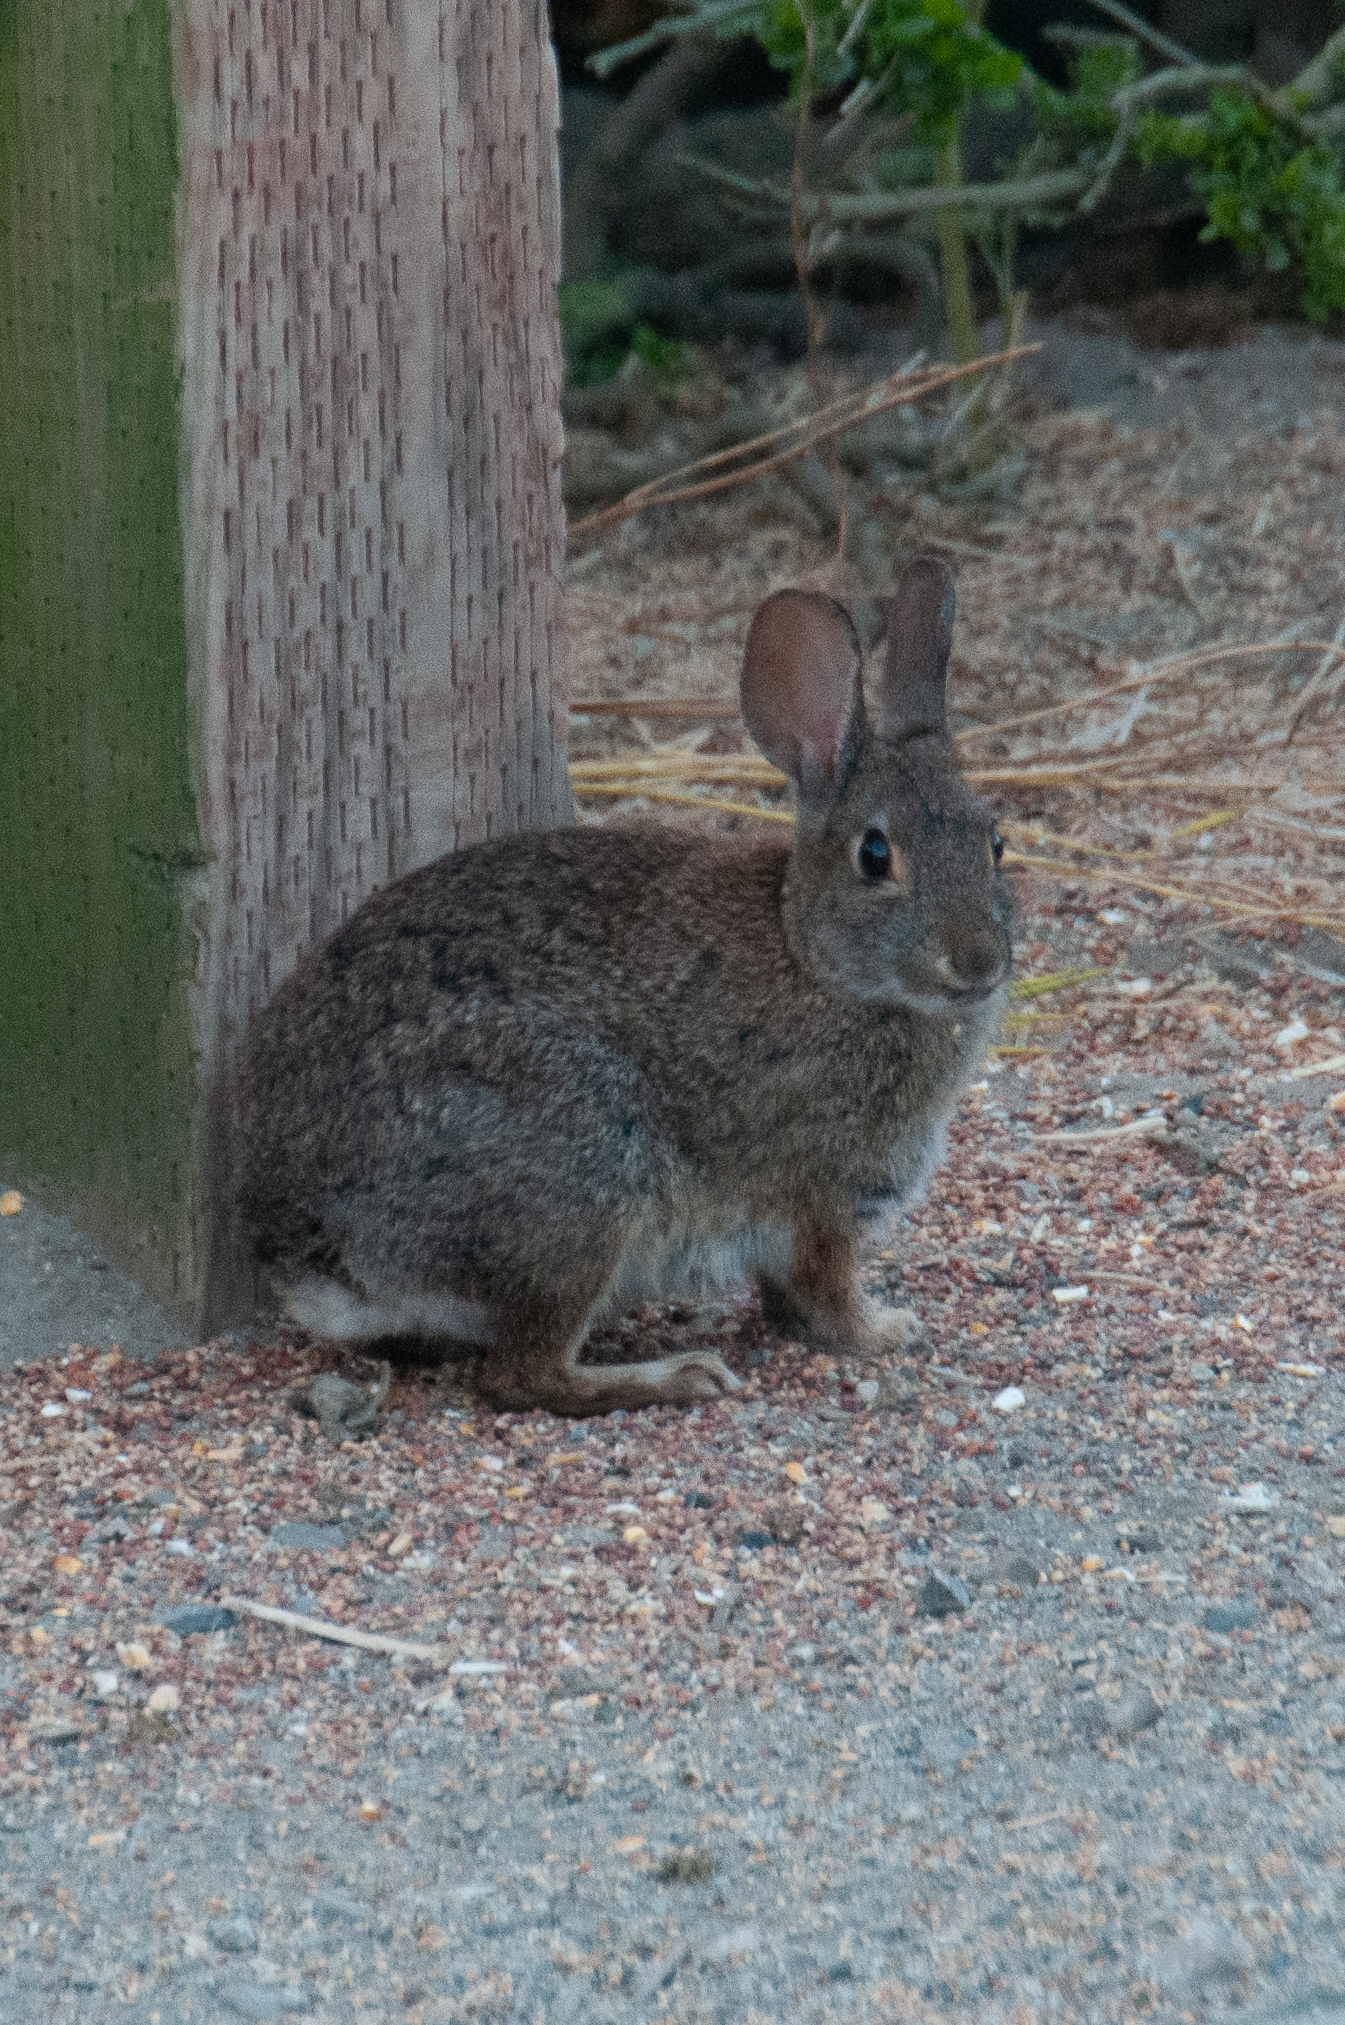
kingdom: Animalia
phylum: Chordata
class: Mammalia
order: Lagomorpha
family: Leporidae
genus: Sylvilagus
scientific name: Sylvilagus bachmani
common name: Brush rabbit
